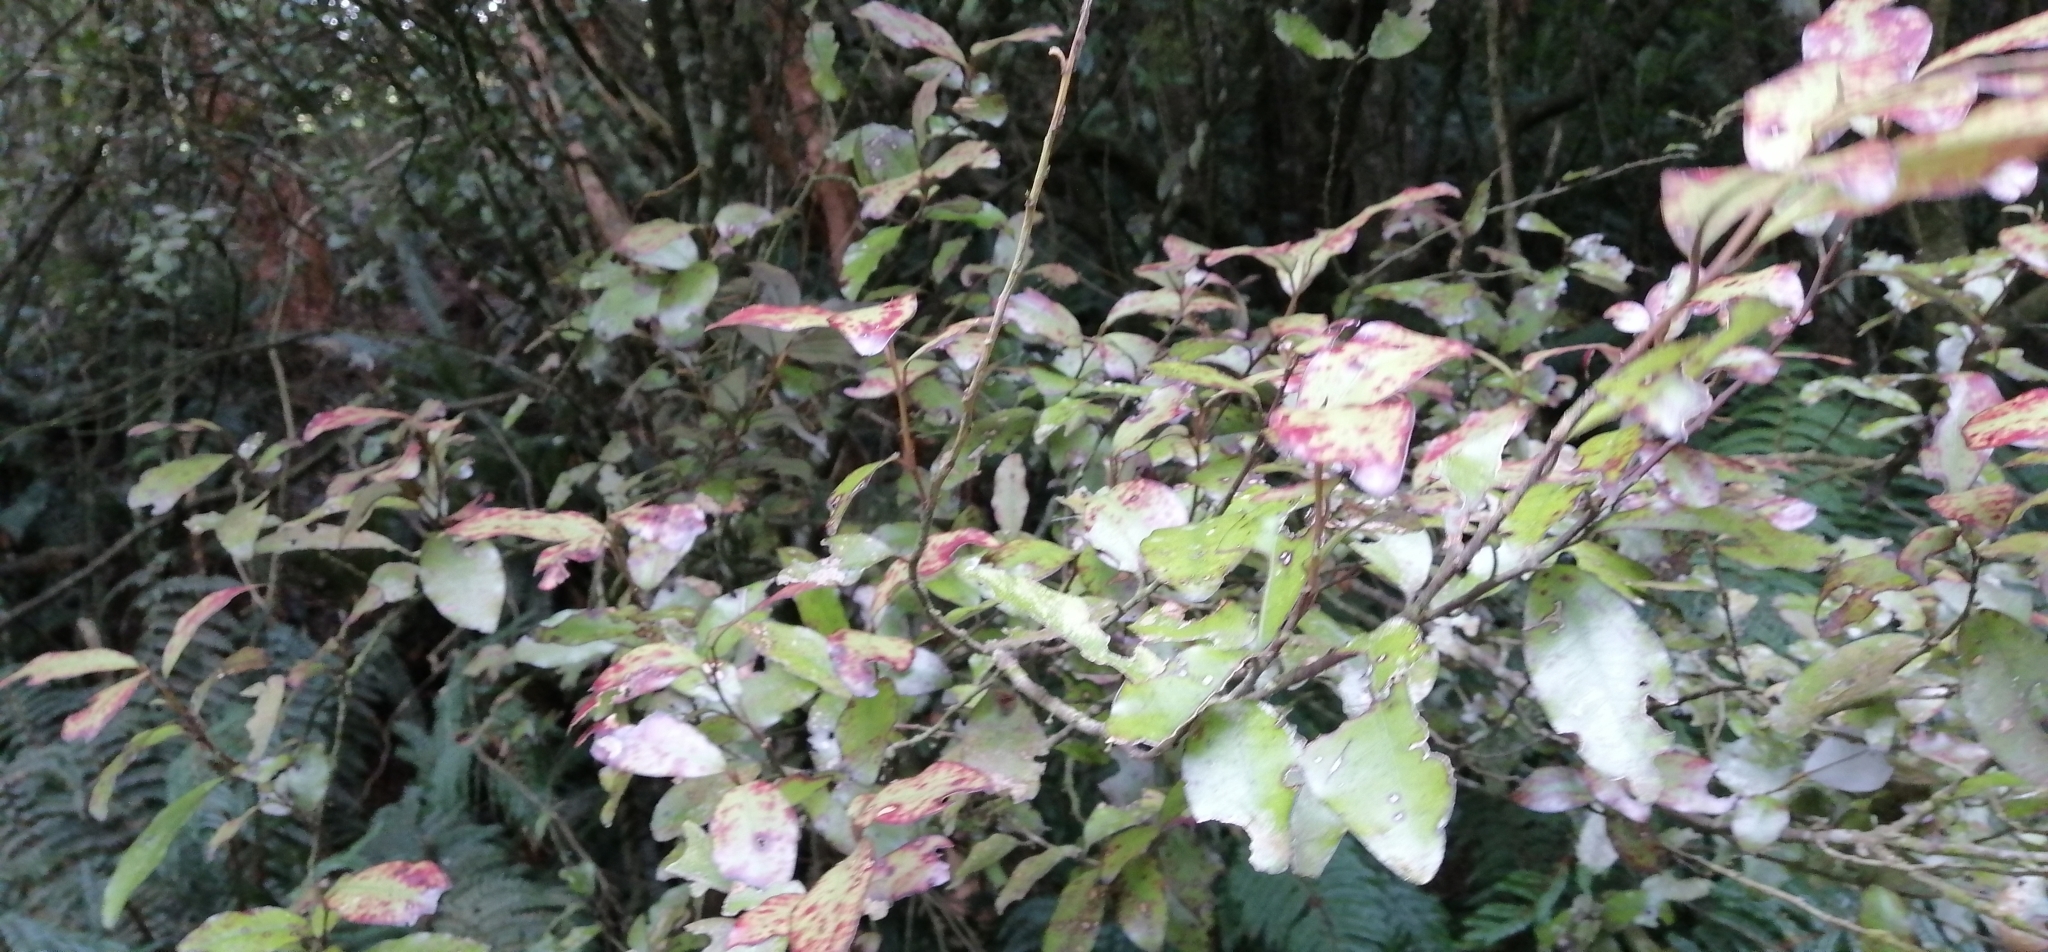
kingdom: Plantae
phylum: Tracheophyta
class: Magnoliopsida
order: Canellales
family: Winteraceae
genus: Pseudowintera
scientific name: Pseudowintera colorata
